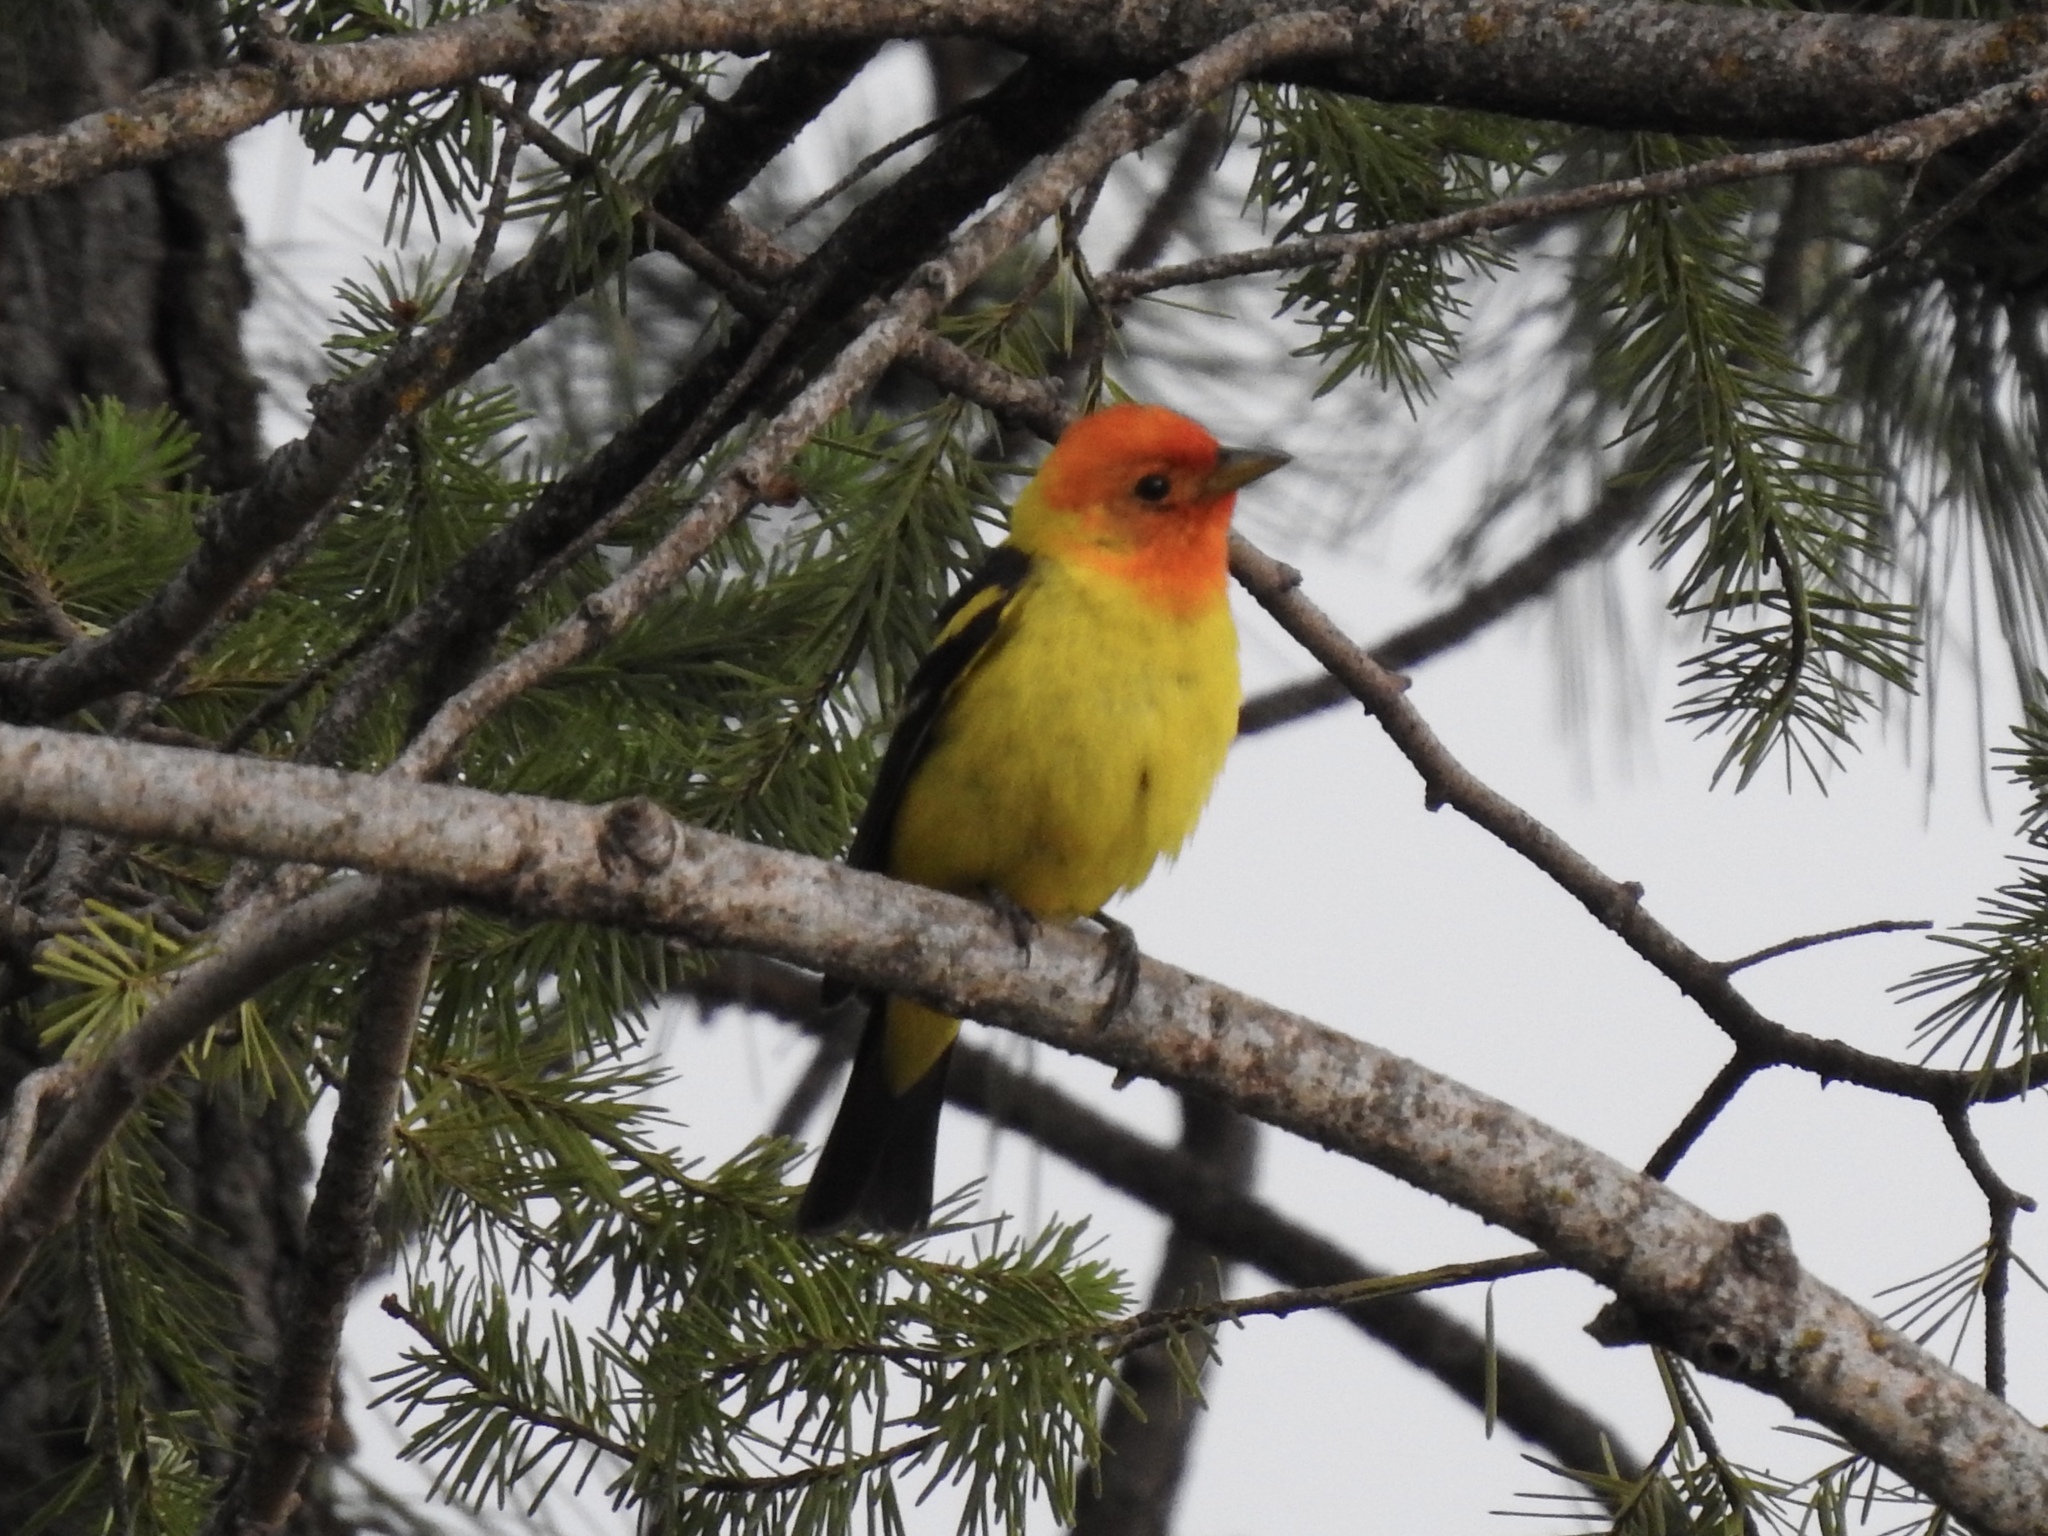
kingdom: Animalia
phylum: Chordata
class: Aves
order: Passeriformes
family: Cardinalidae
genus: Piranga
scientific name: Piranga ludoviciana
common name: Western tanager
